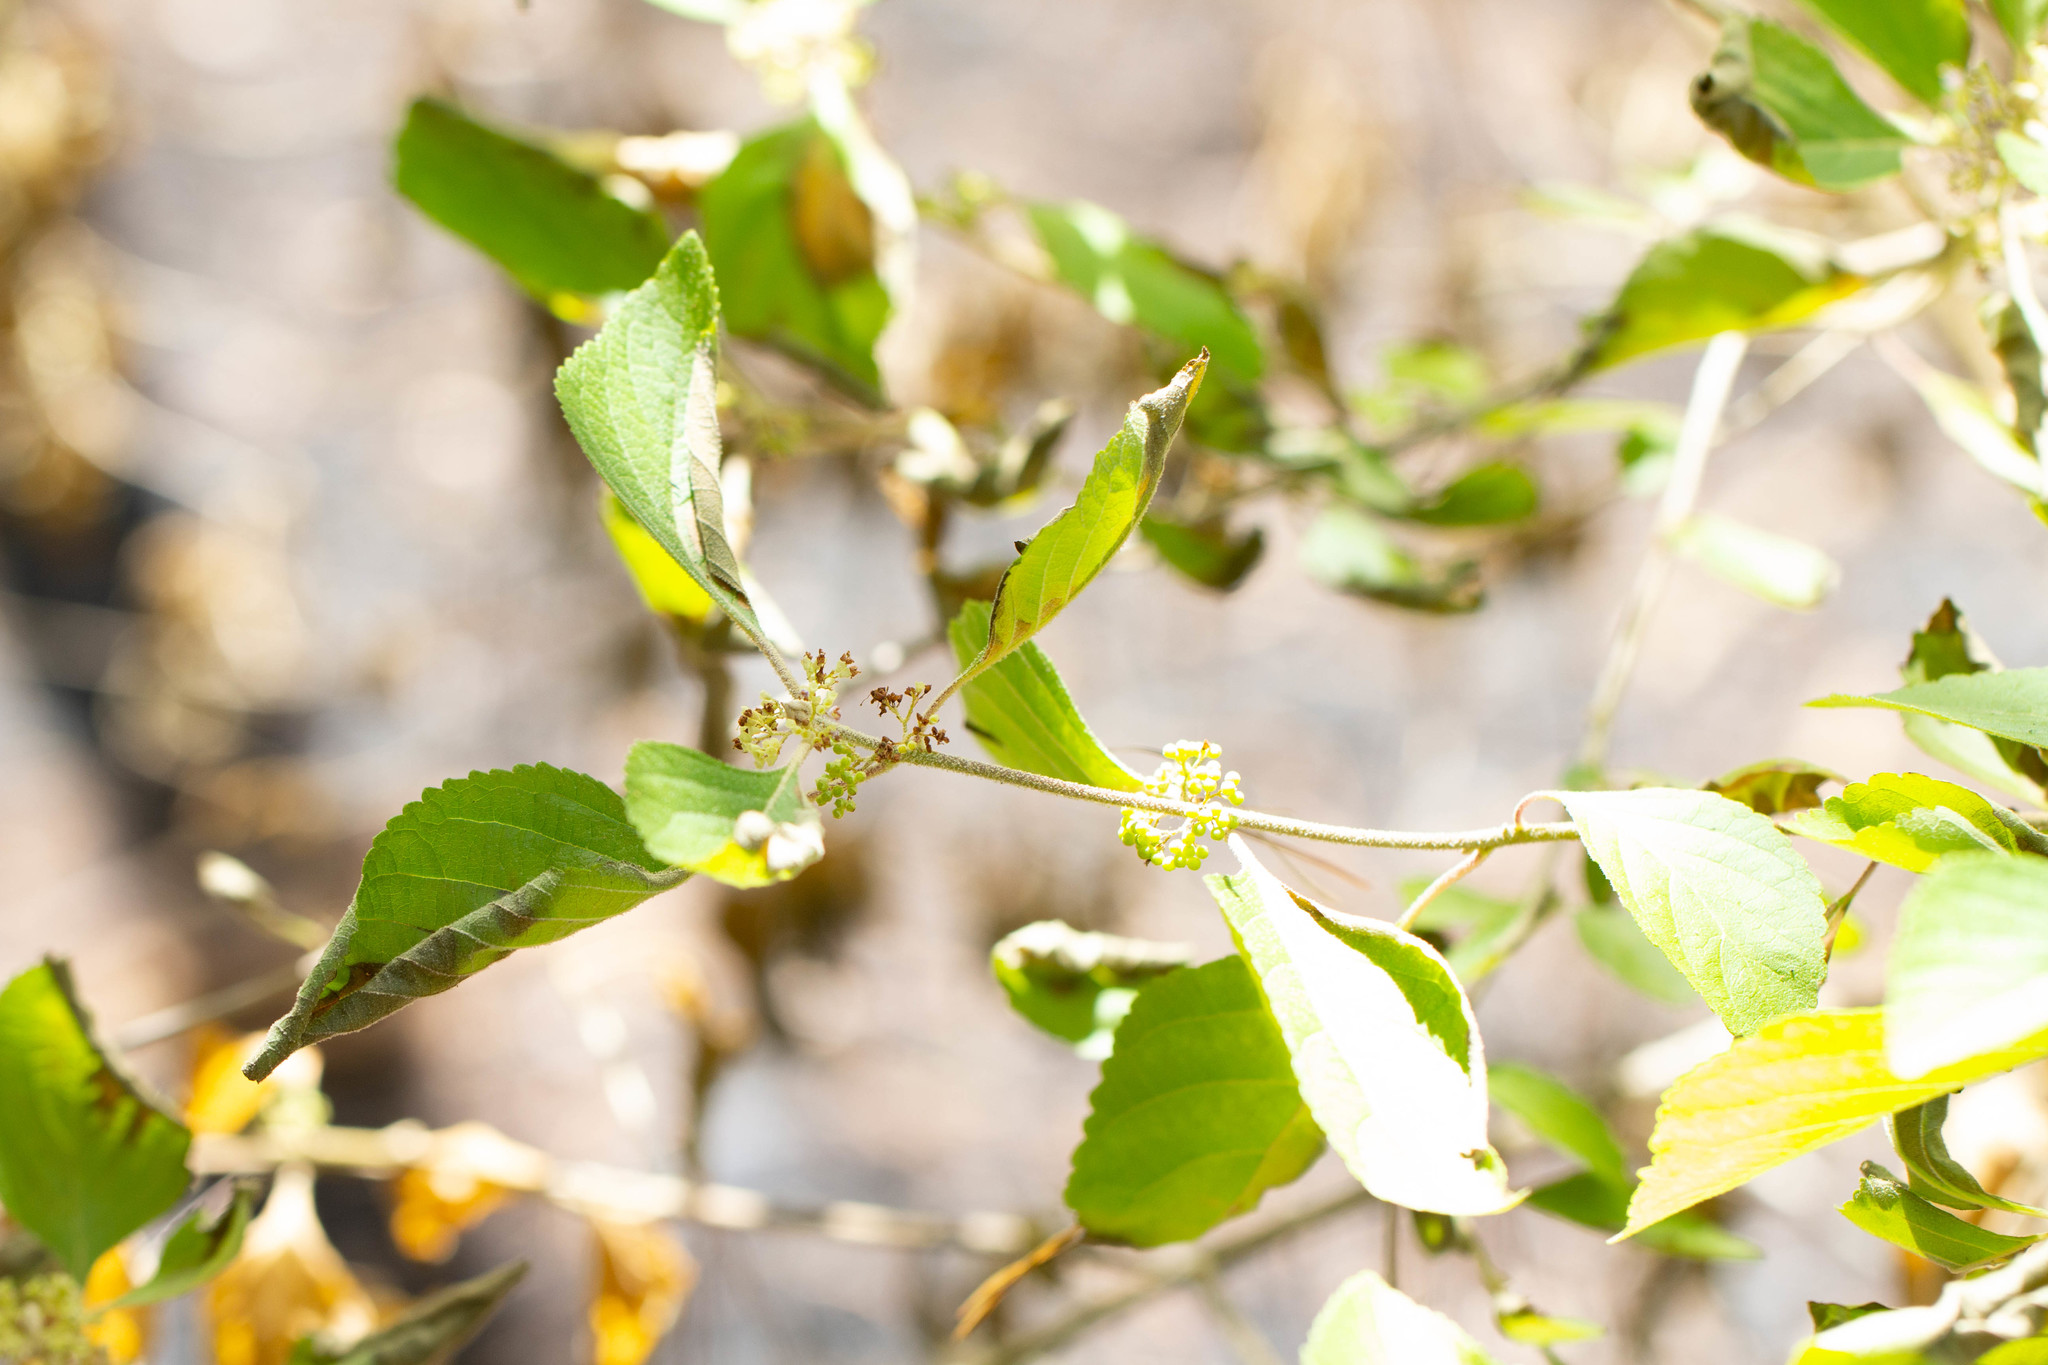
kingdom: Plantae
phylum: Tracheophyta
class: Magnoliopsida
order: Lamiales
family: Lamiaceae
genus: Callicarpa
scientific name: Callicarpa americana
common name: American beautyberry
